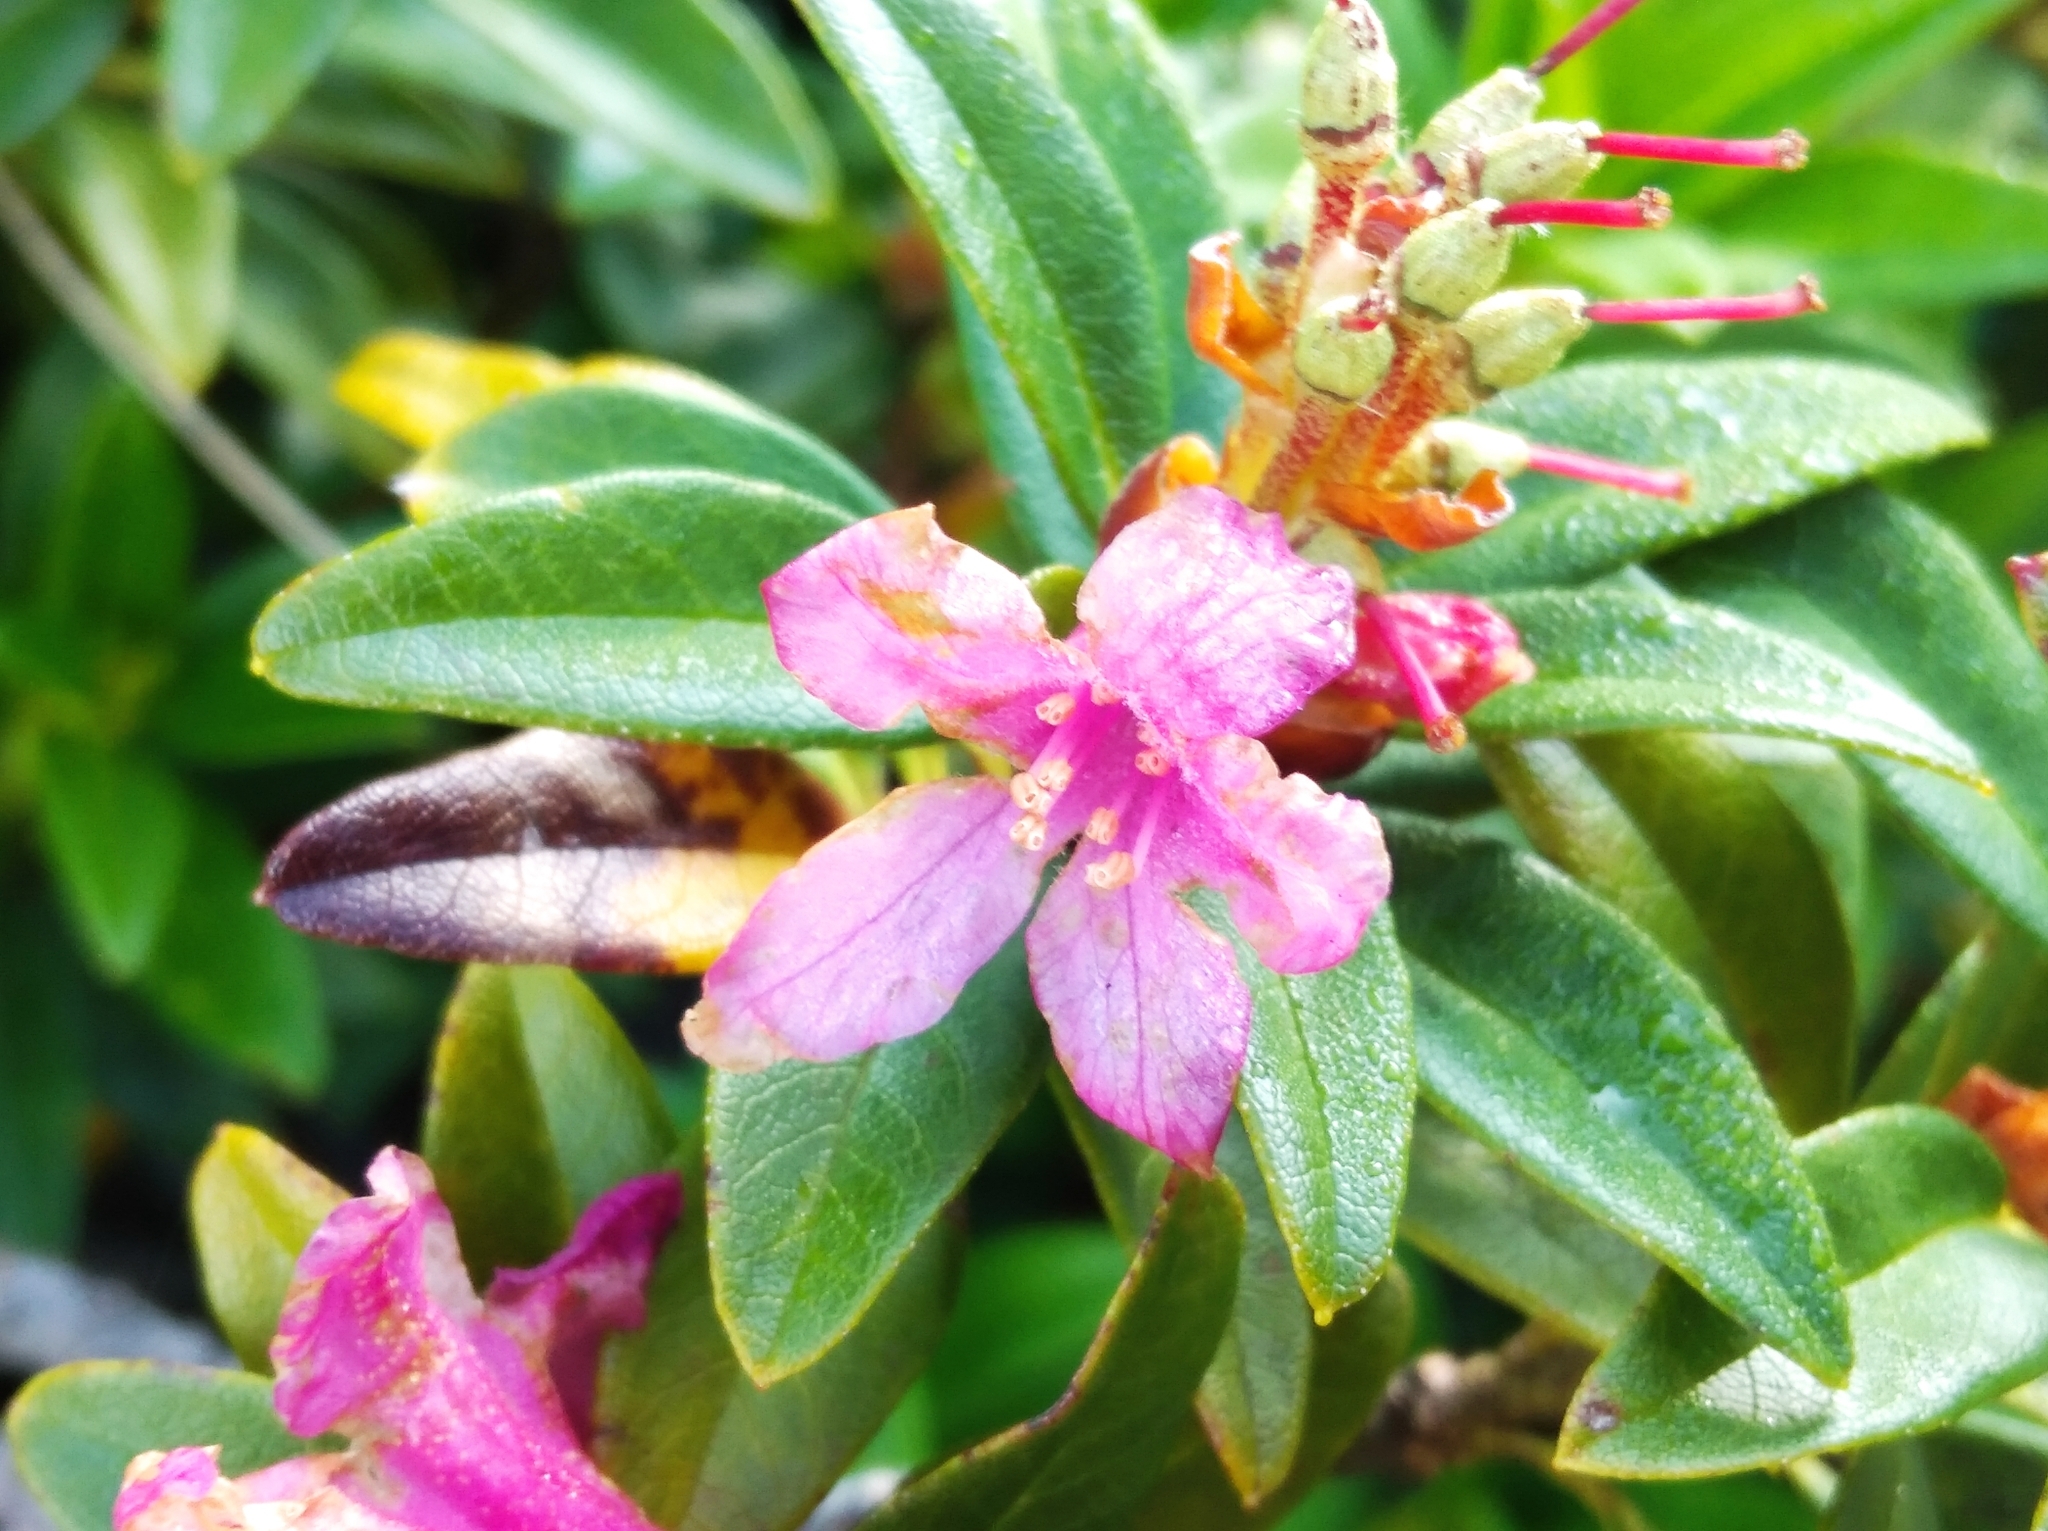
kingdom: Plantae
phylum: Tracheophyta
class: Magnoliopsida
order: Ericales
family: Ericaceae
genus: Rhododendron
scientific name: Rhododendron ferrugineum
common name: Alpenrose
